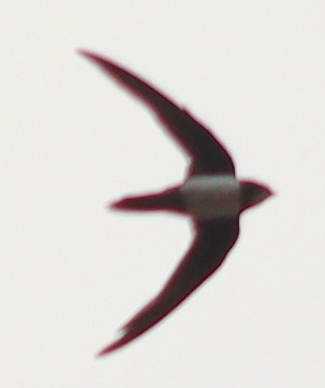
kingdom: Animalia
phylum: Chordata
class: Aves
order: Apodiformes
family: Apodidae
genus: Tachymarptis
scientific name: Tachymarptis melba
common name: Alpine swift
